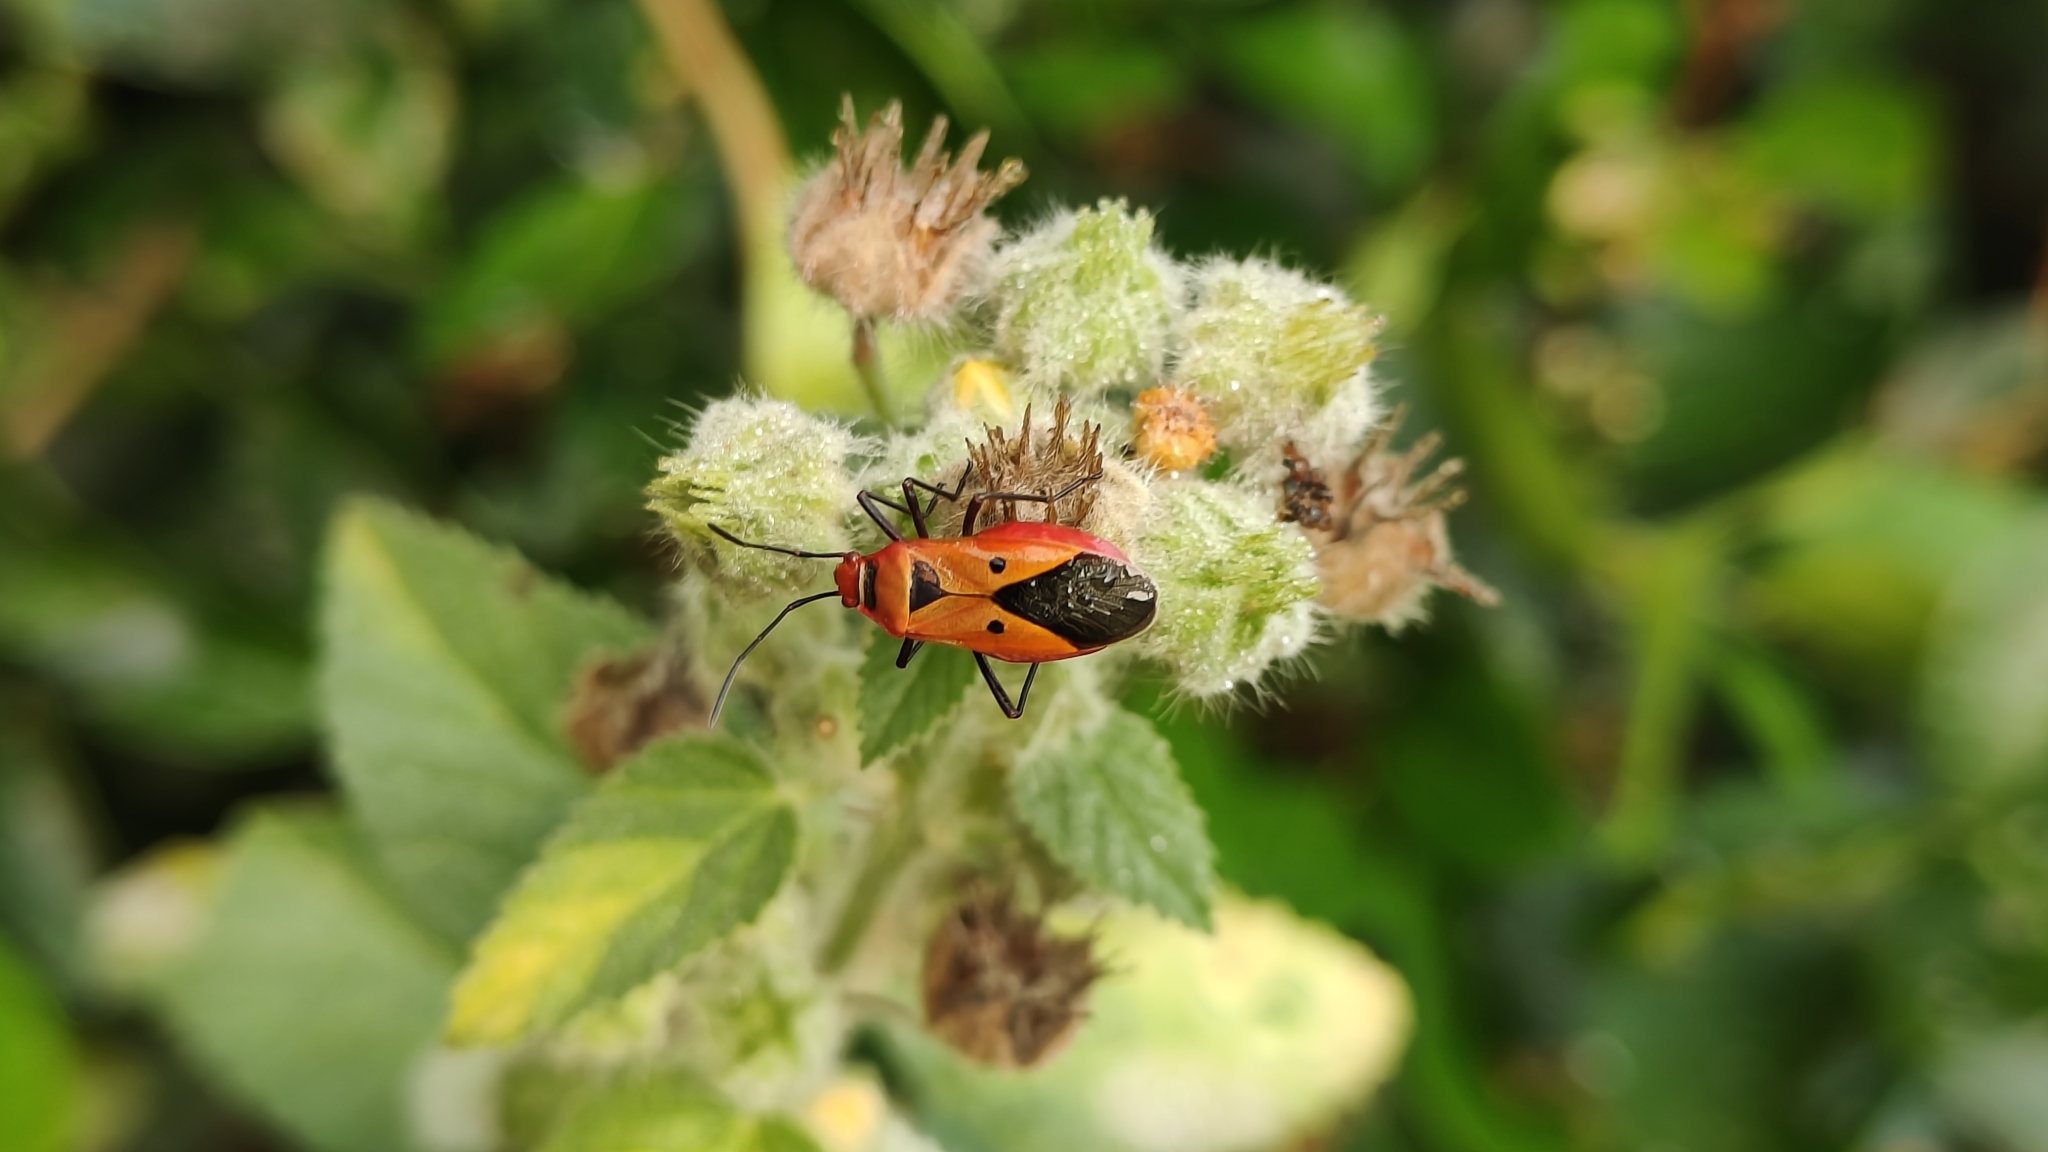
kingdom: Animalia
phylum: Arthropoda
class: Insecta
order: Hemiptera
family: Pyrrhocoridae
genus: Dysdercus
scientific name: Dysdercus cingulatus
